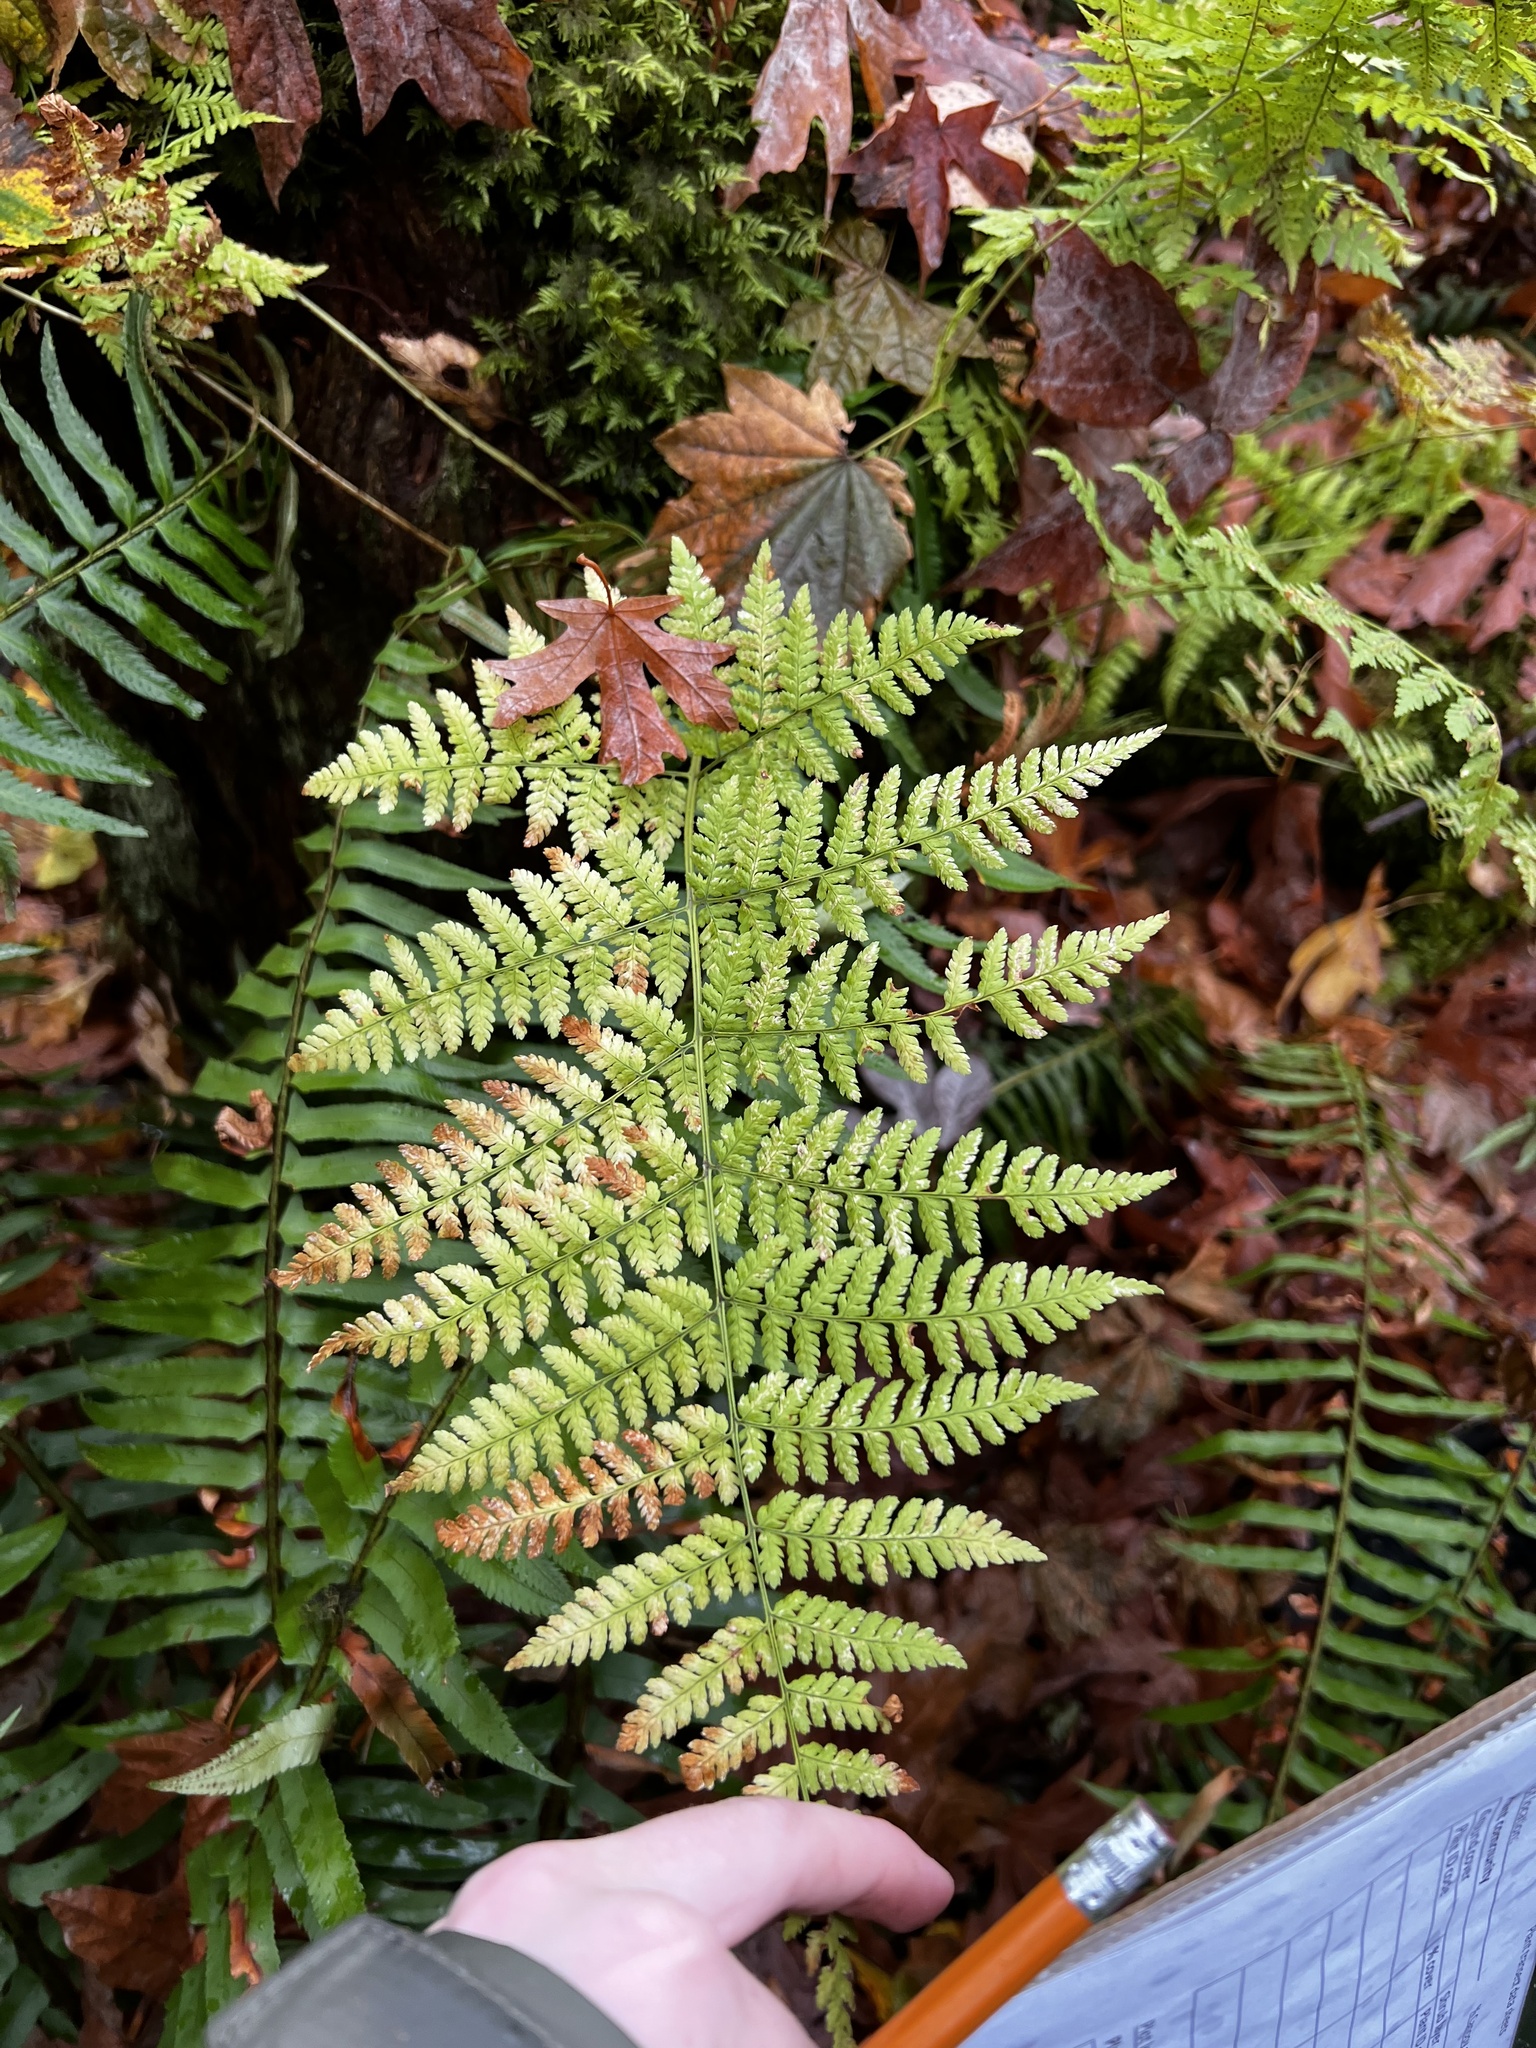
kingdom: Plantae
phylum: Tracheophyta
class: Polypodiopsida
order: Polypodiales
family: Dryopteridaceae
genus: Dryopteris
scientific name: Dryopteris expansa
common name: Northern buckler fern
